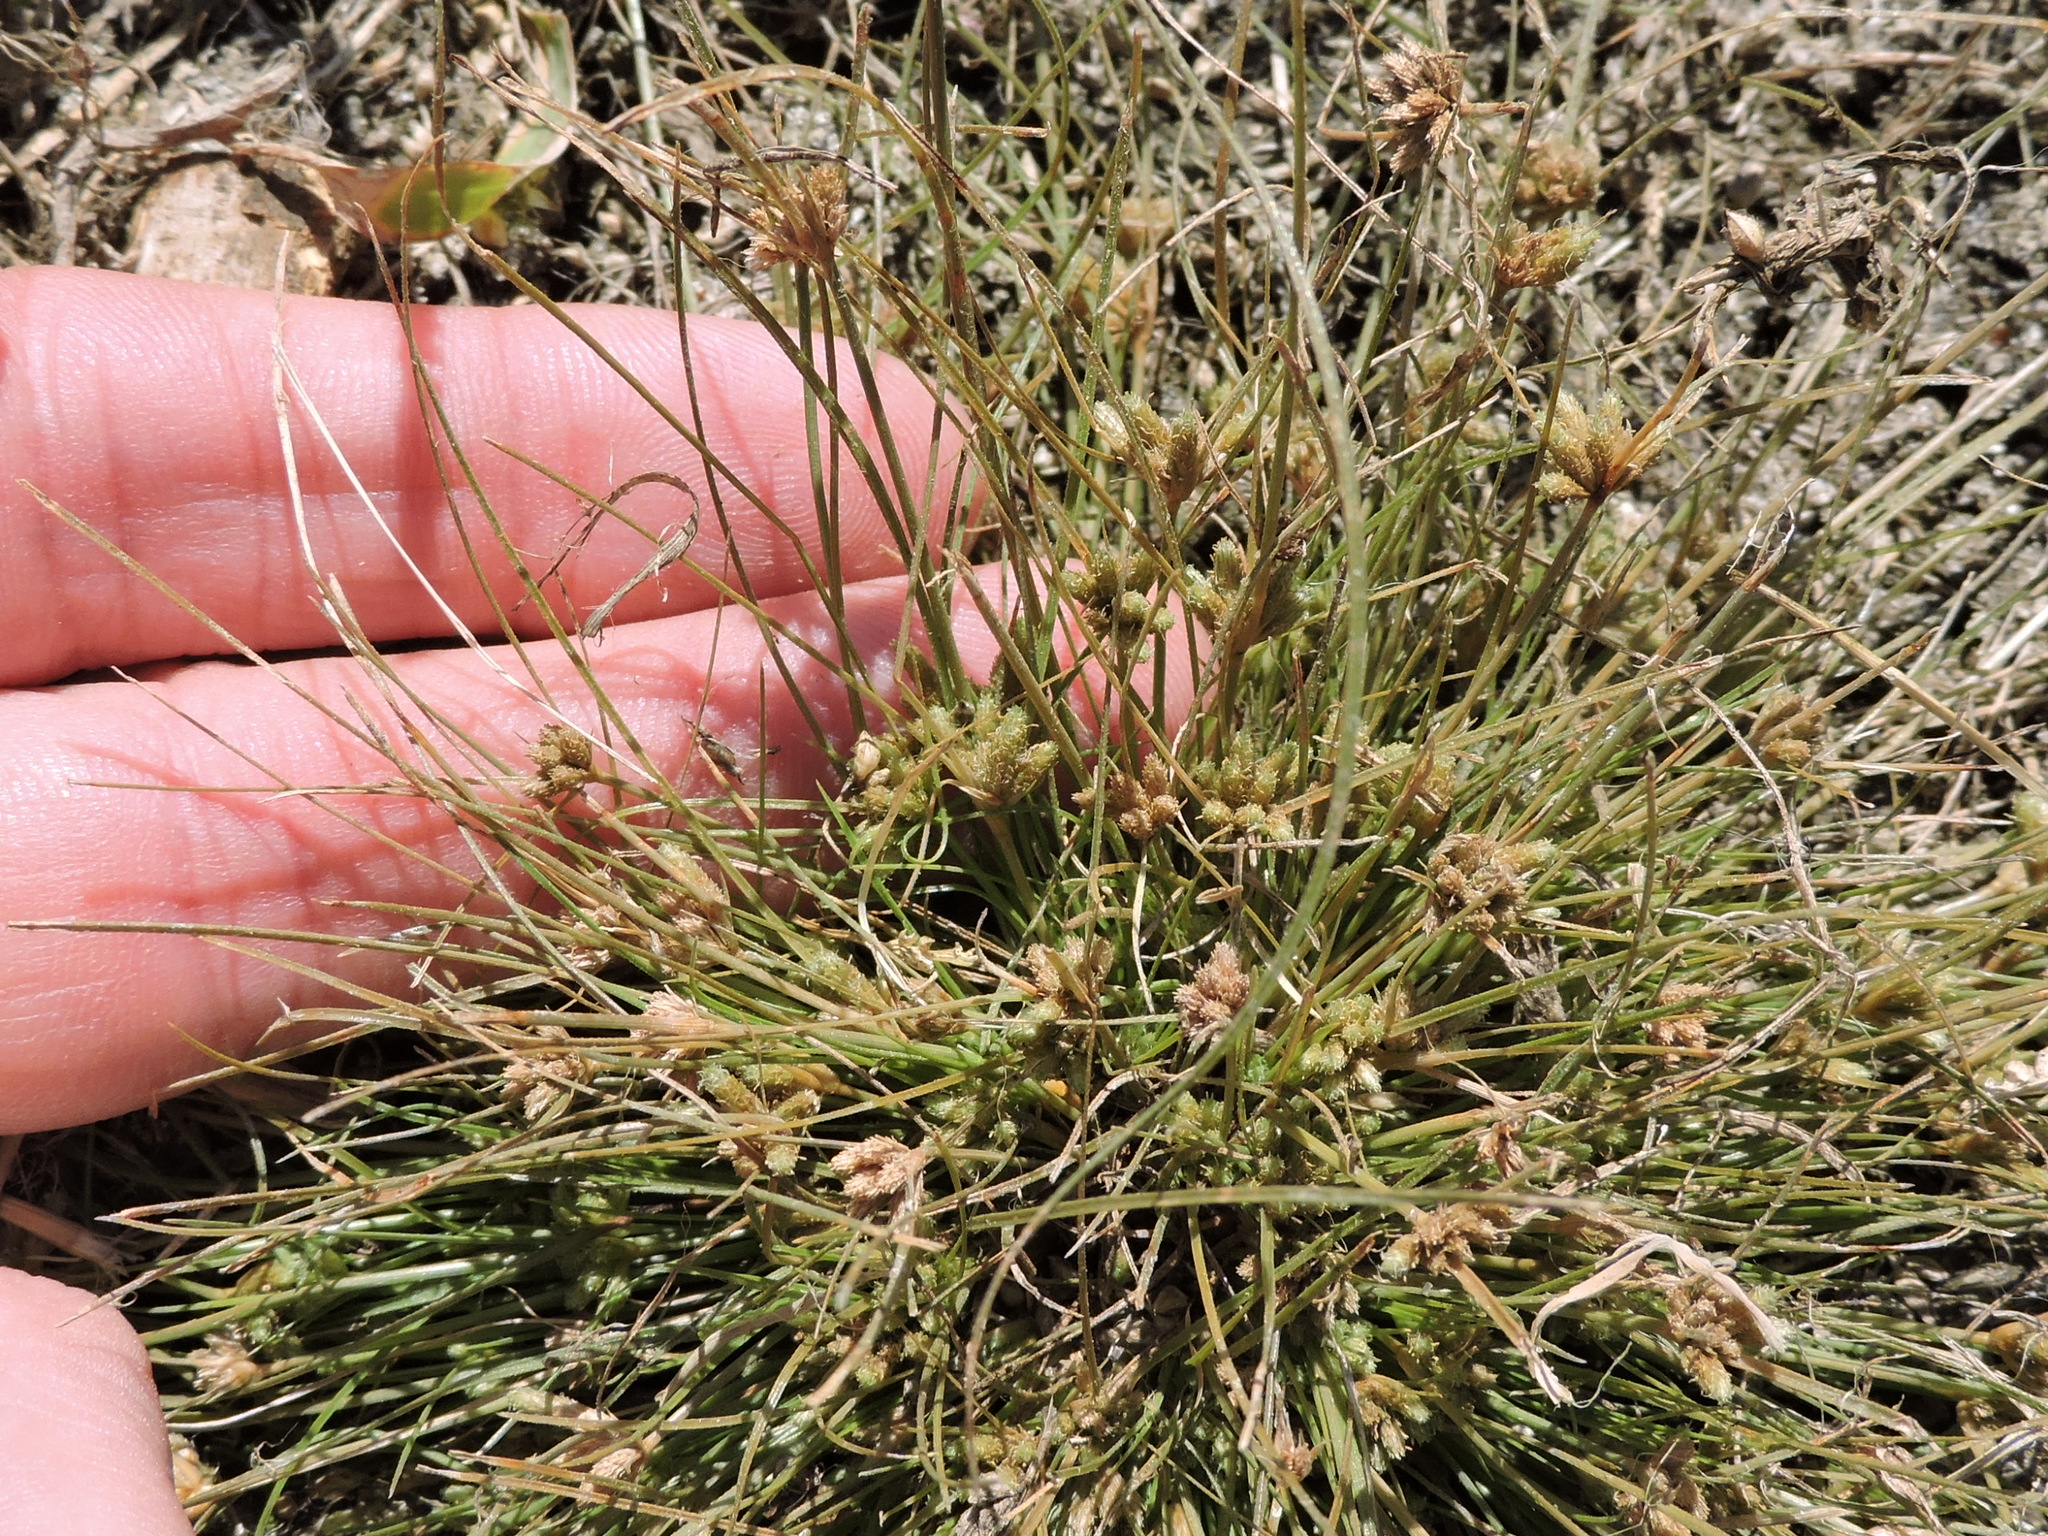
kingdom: Plantae
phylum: Tracheophyta
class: Liliopsida
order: Poales
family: Cyperaceae
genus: Fimbristylis
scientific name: Fimbristylis vahlii
